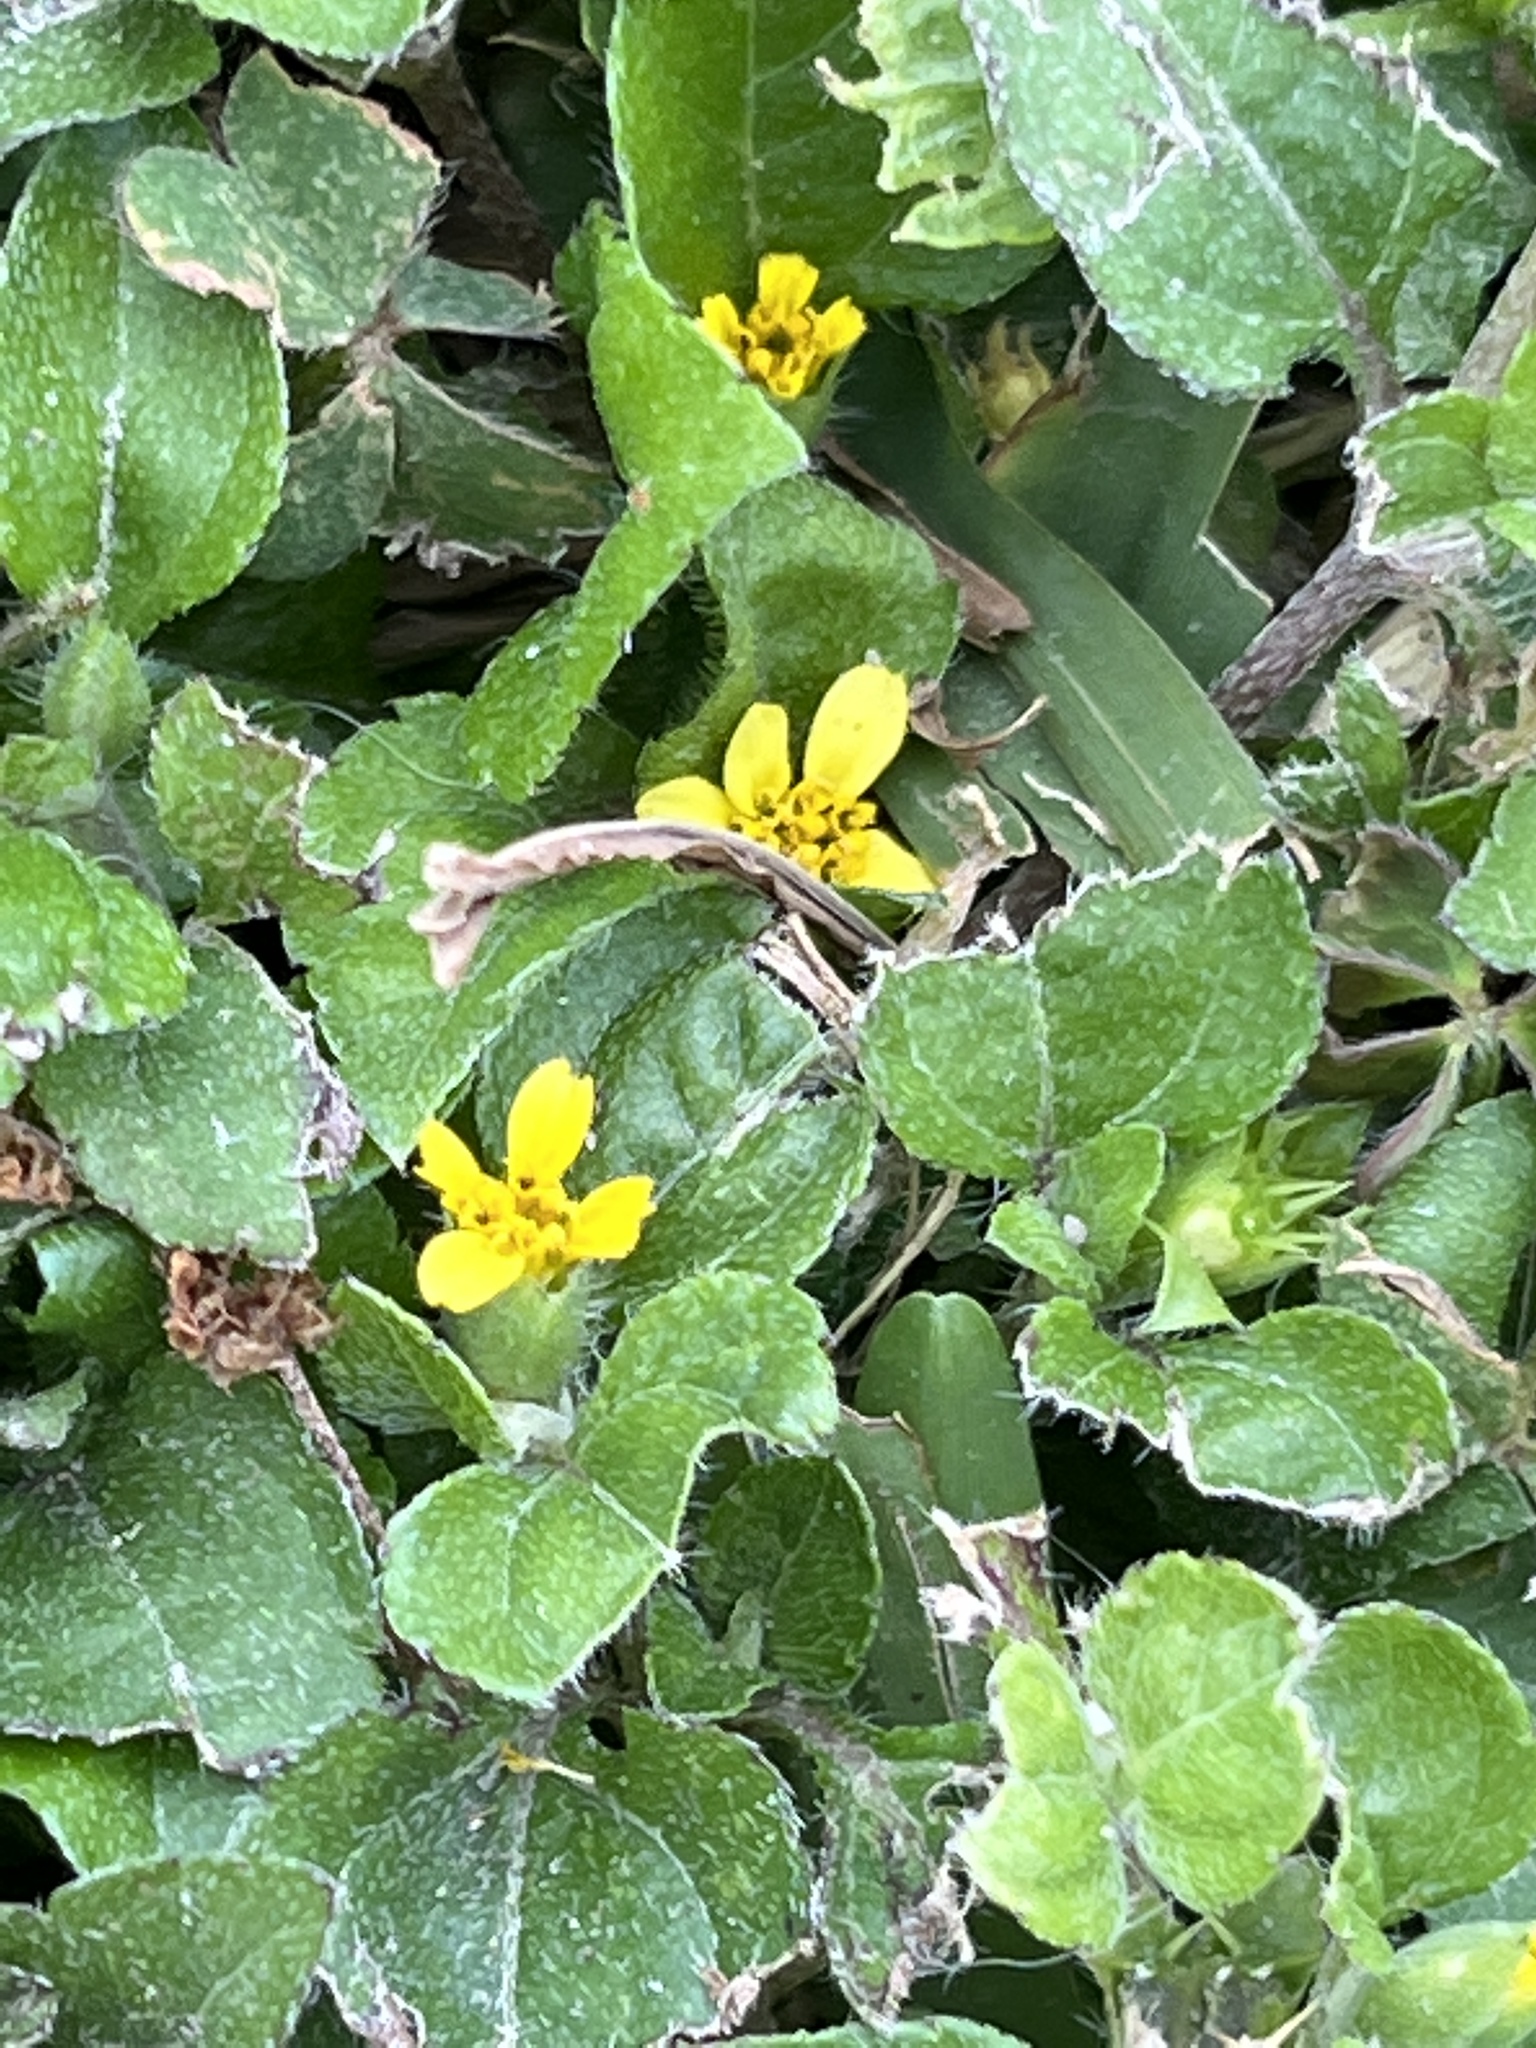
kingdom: Plantae
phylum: Tracheophyta
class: Magnoliopsida
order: Asterales
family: Asteraceae
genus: Calyptocarpus
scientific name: Calyptocarpus vialis
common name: Straggler daisy
